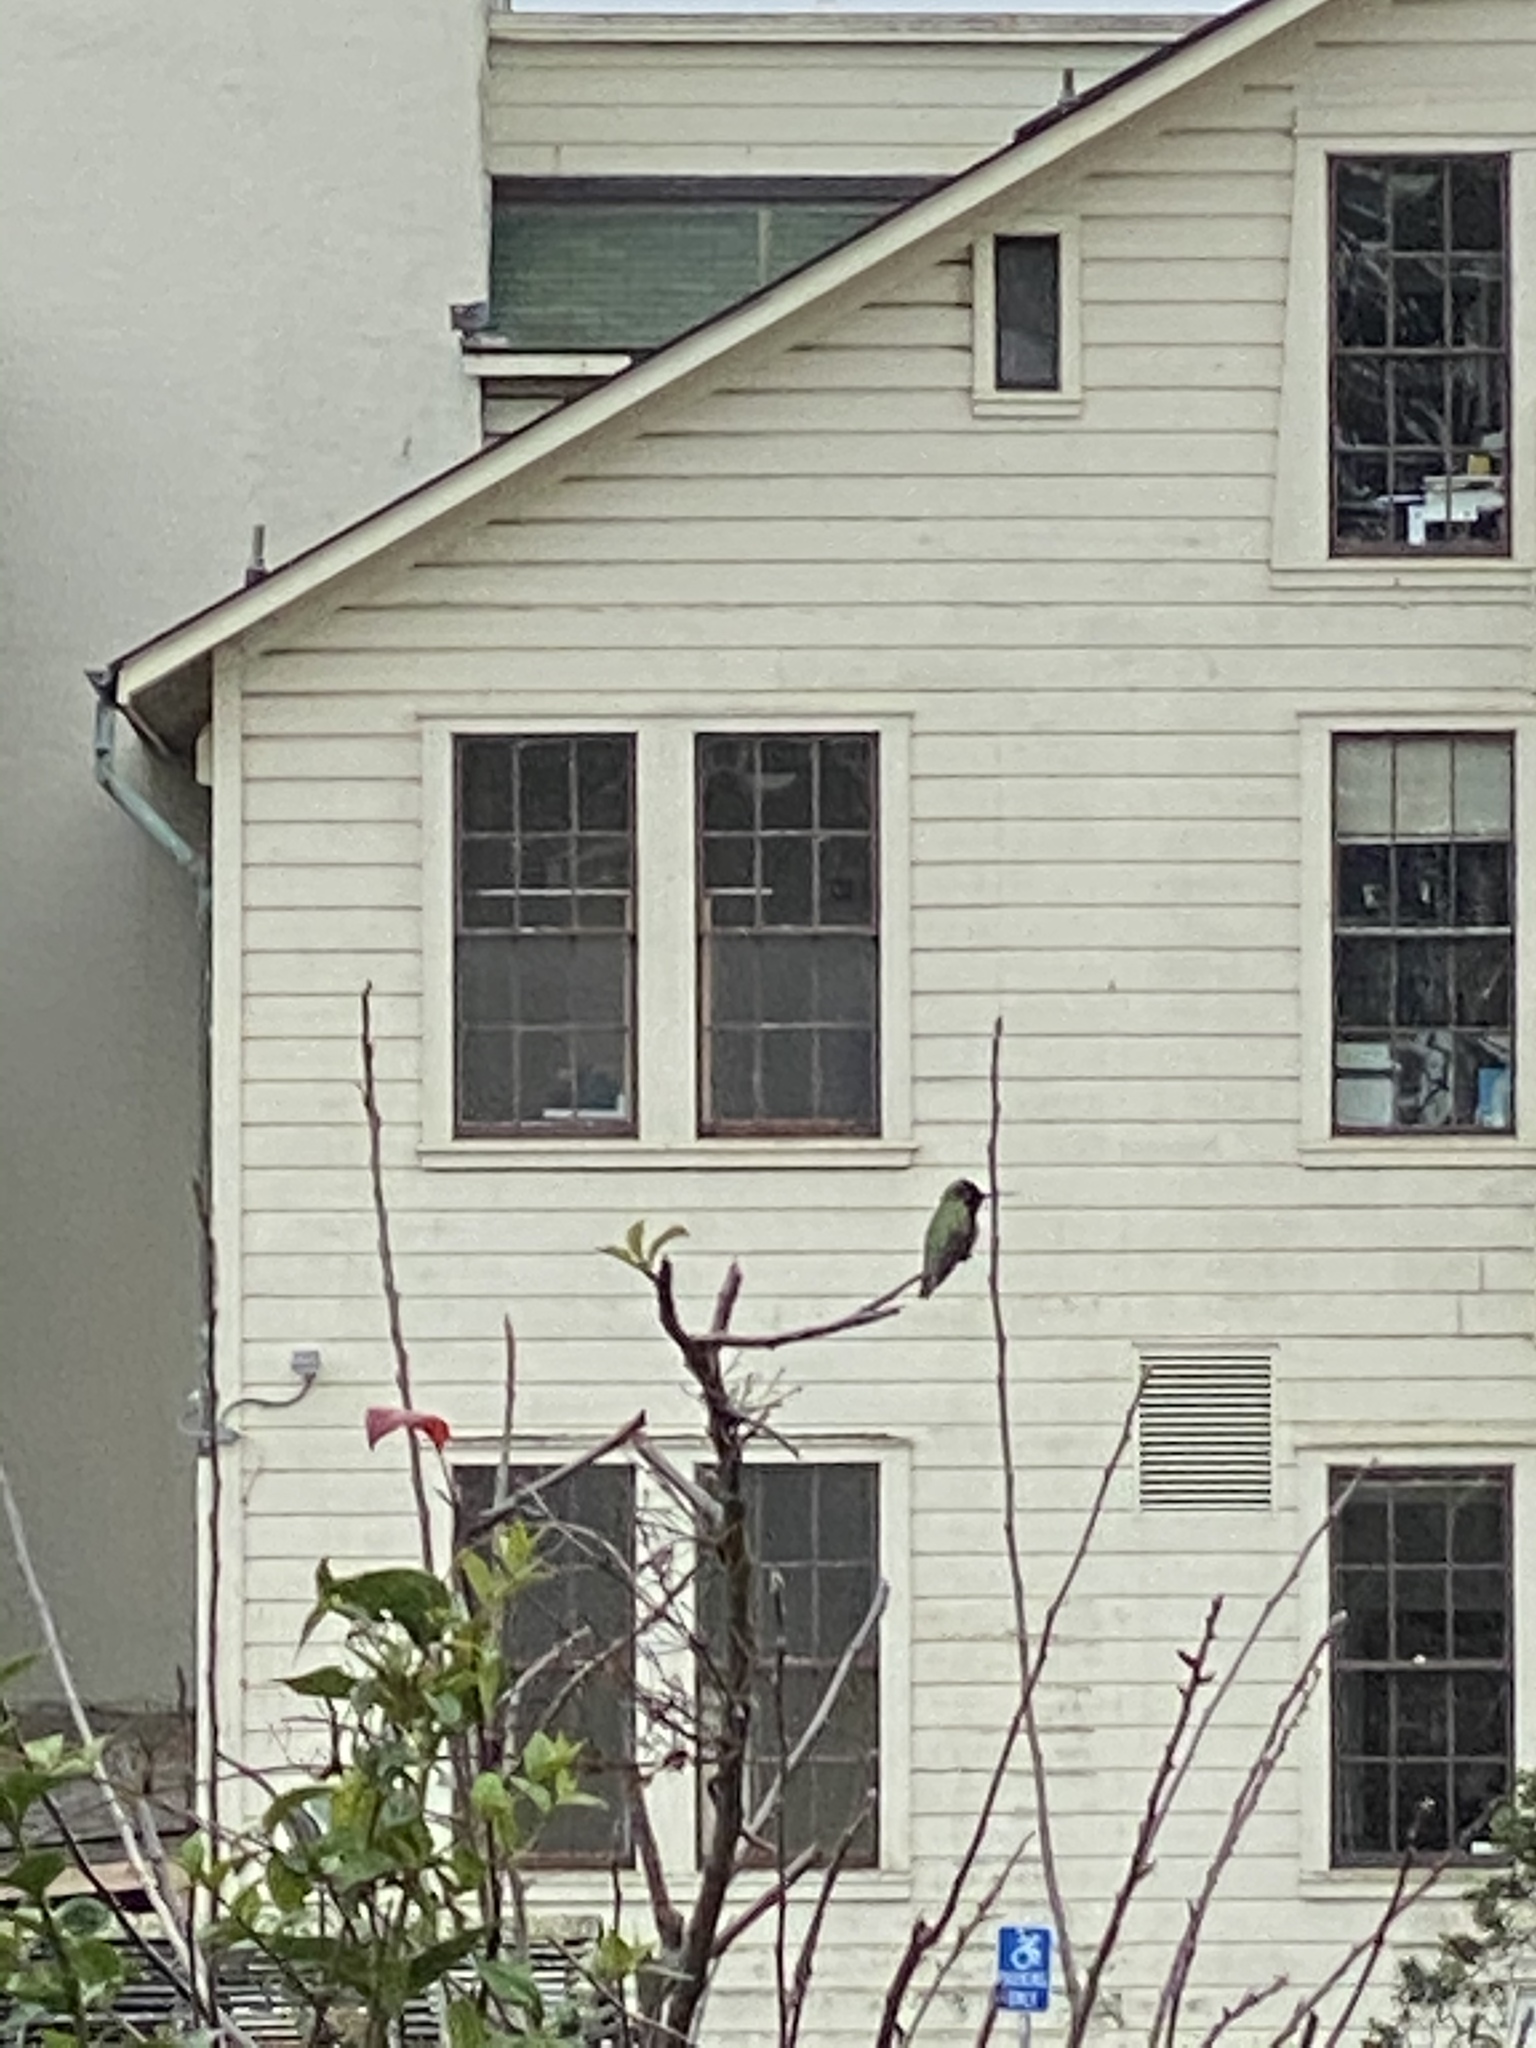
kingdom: Animalia
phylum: Chordata
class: Aves
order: Apodiformes
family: Trochilidae
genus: Calypte
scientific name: Calypte anna
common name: Anna's hummingbird
